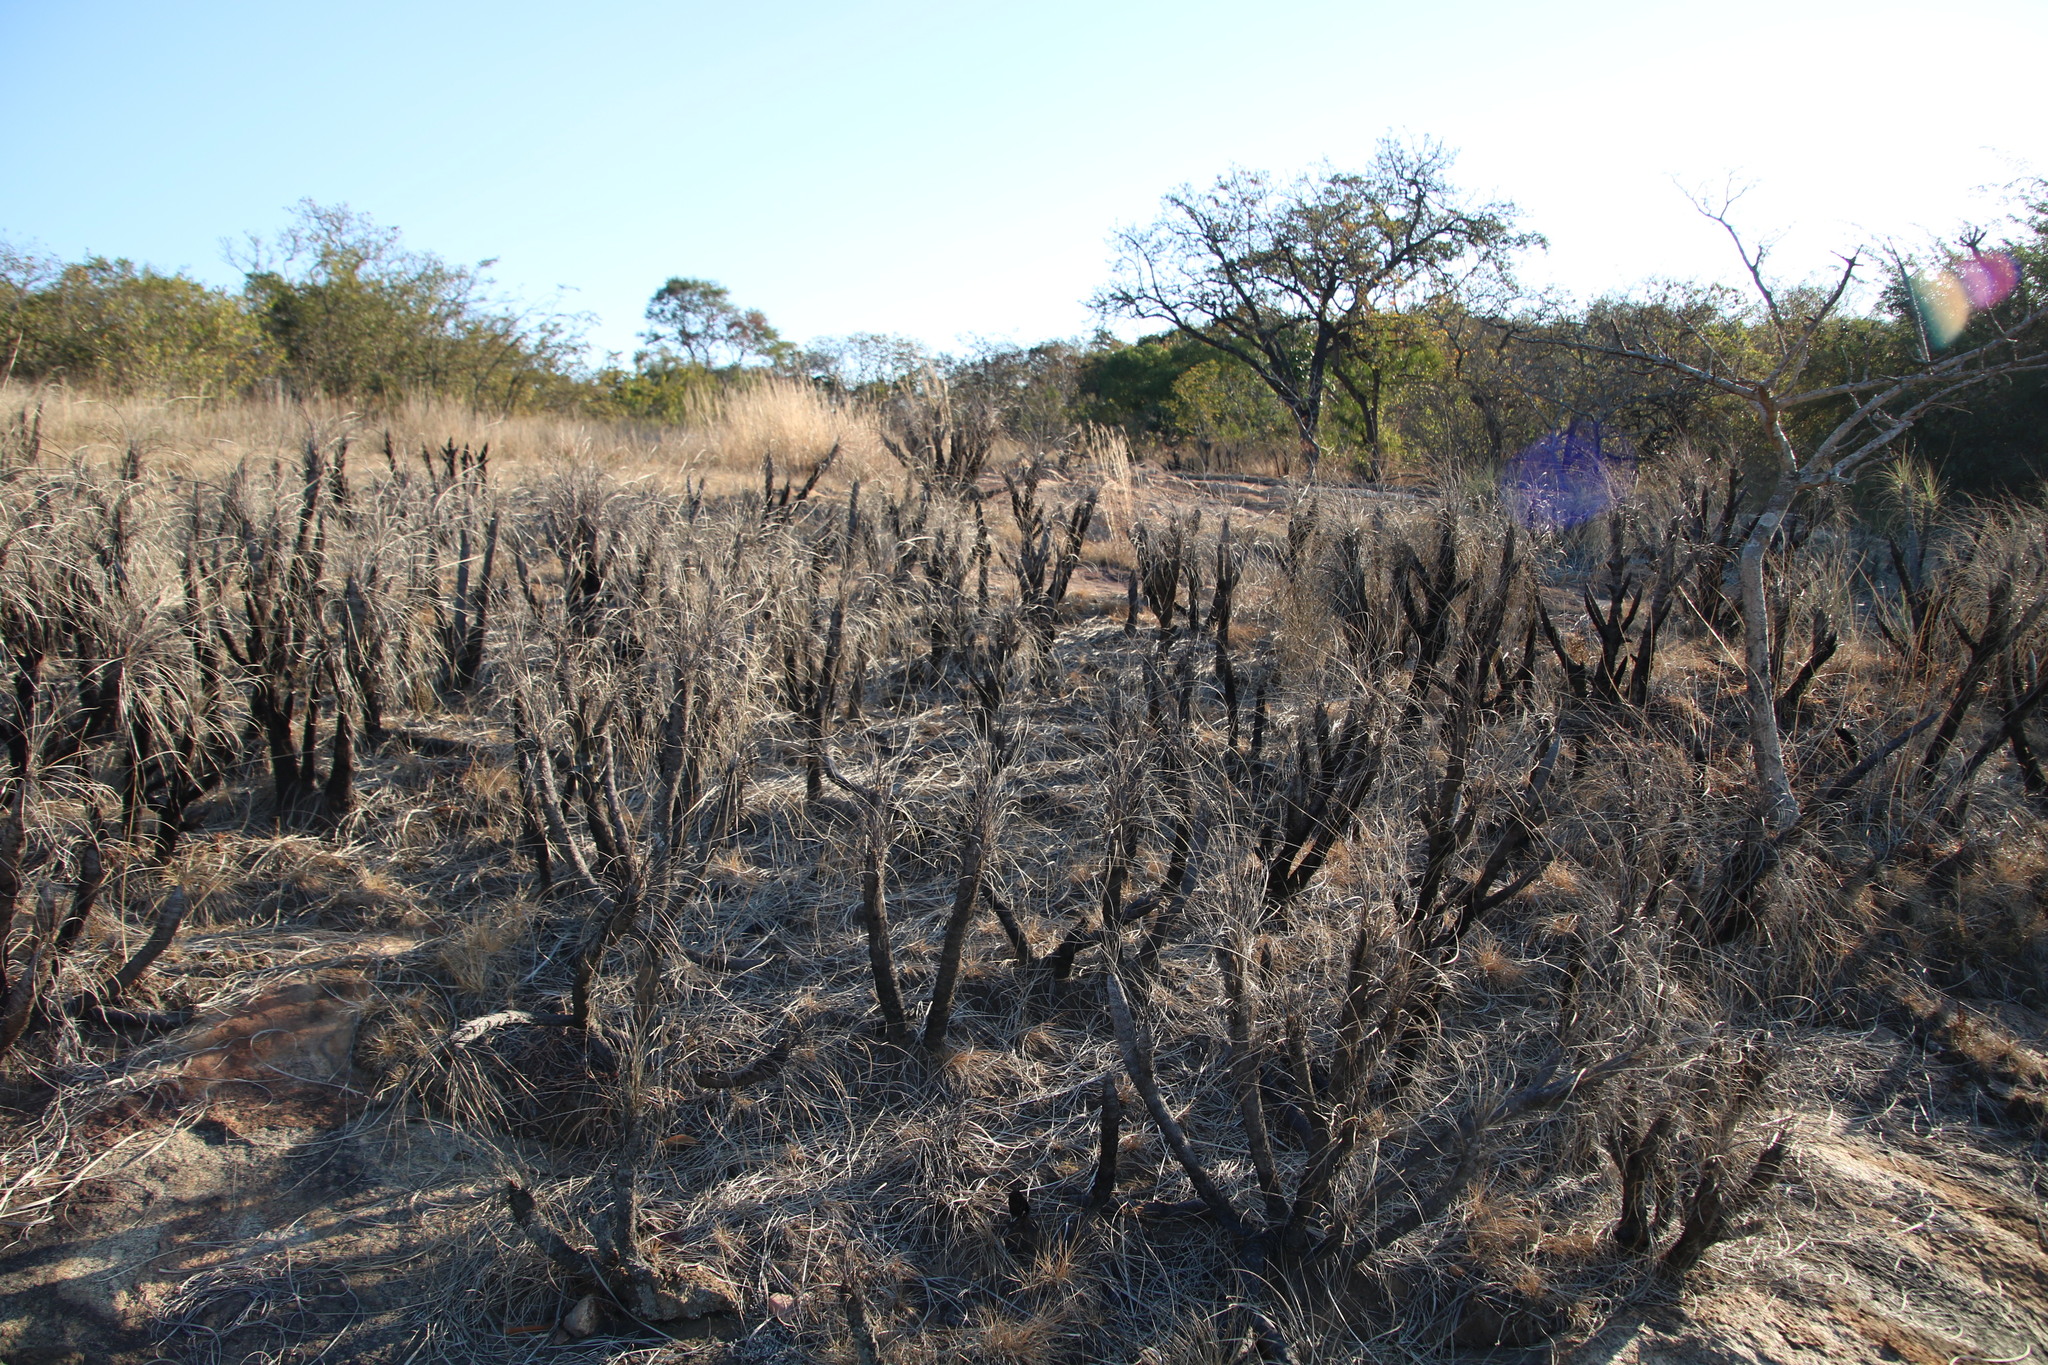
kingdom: Plantae
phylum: Tracheophyta
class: Liliopsida
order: Pandanales
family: Velloziaceae
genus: Xerophyta
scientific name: Xerophyta retinervis
